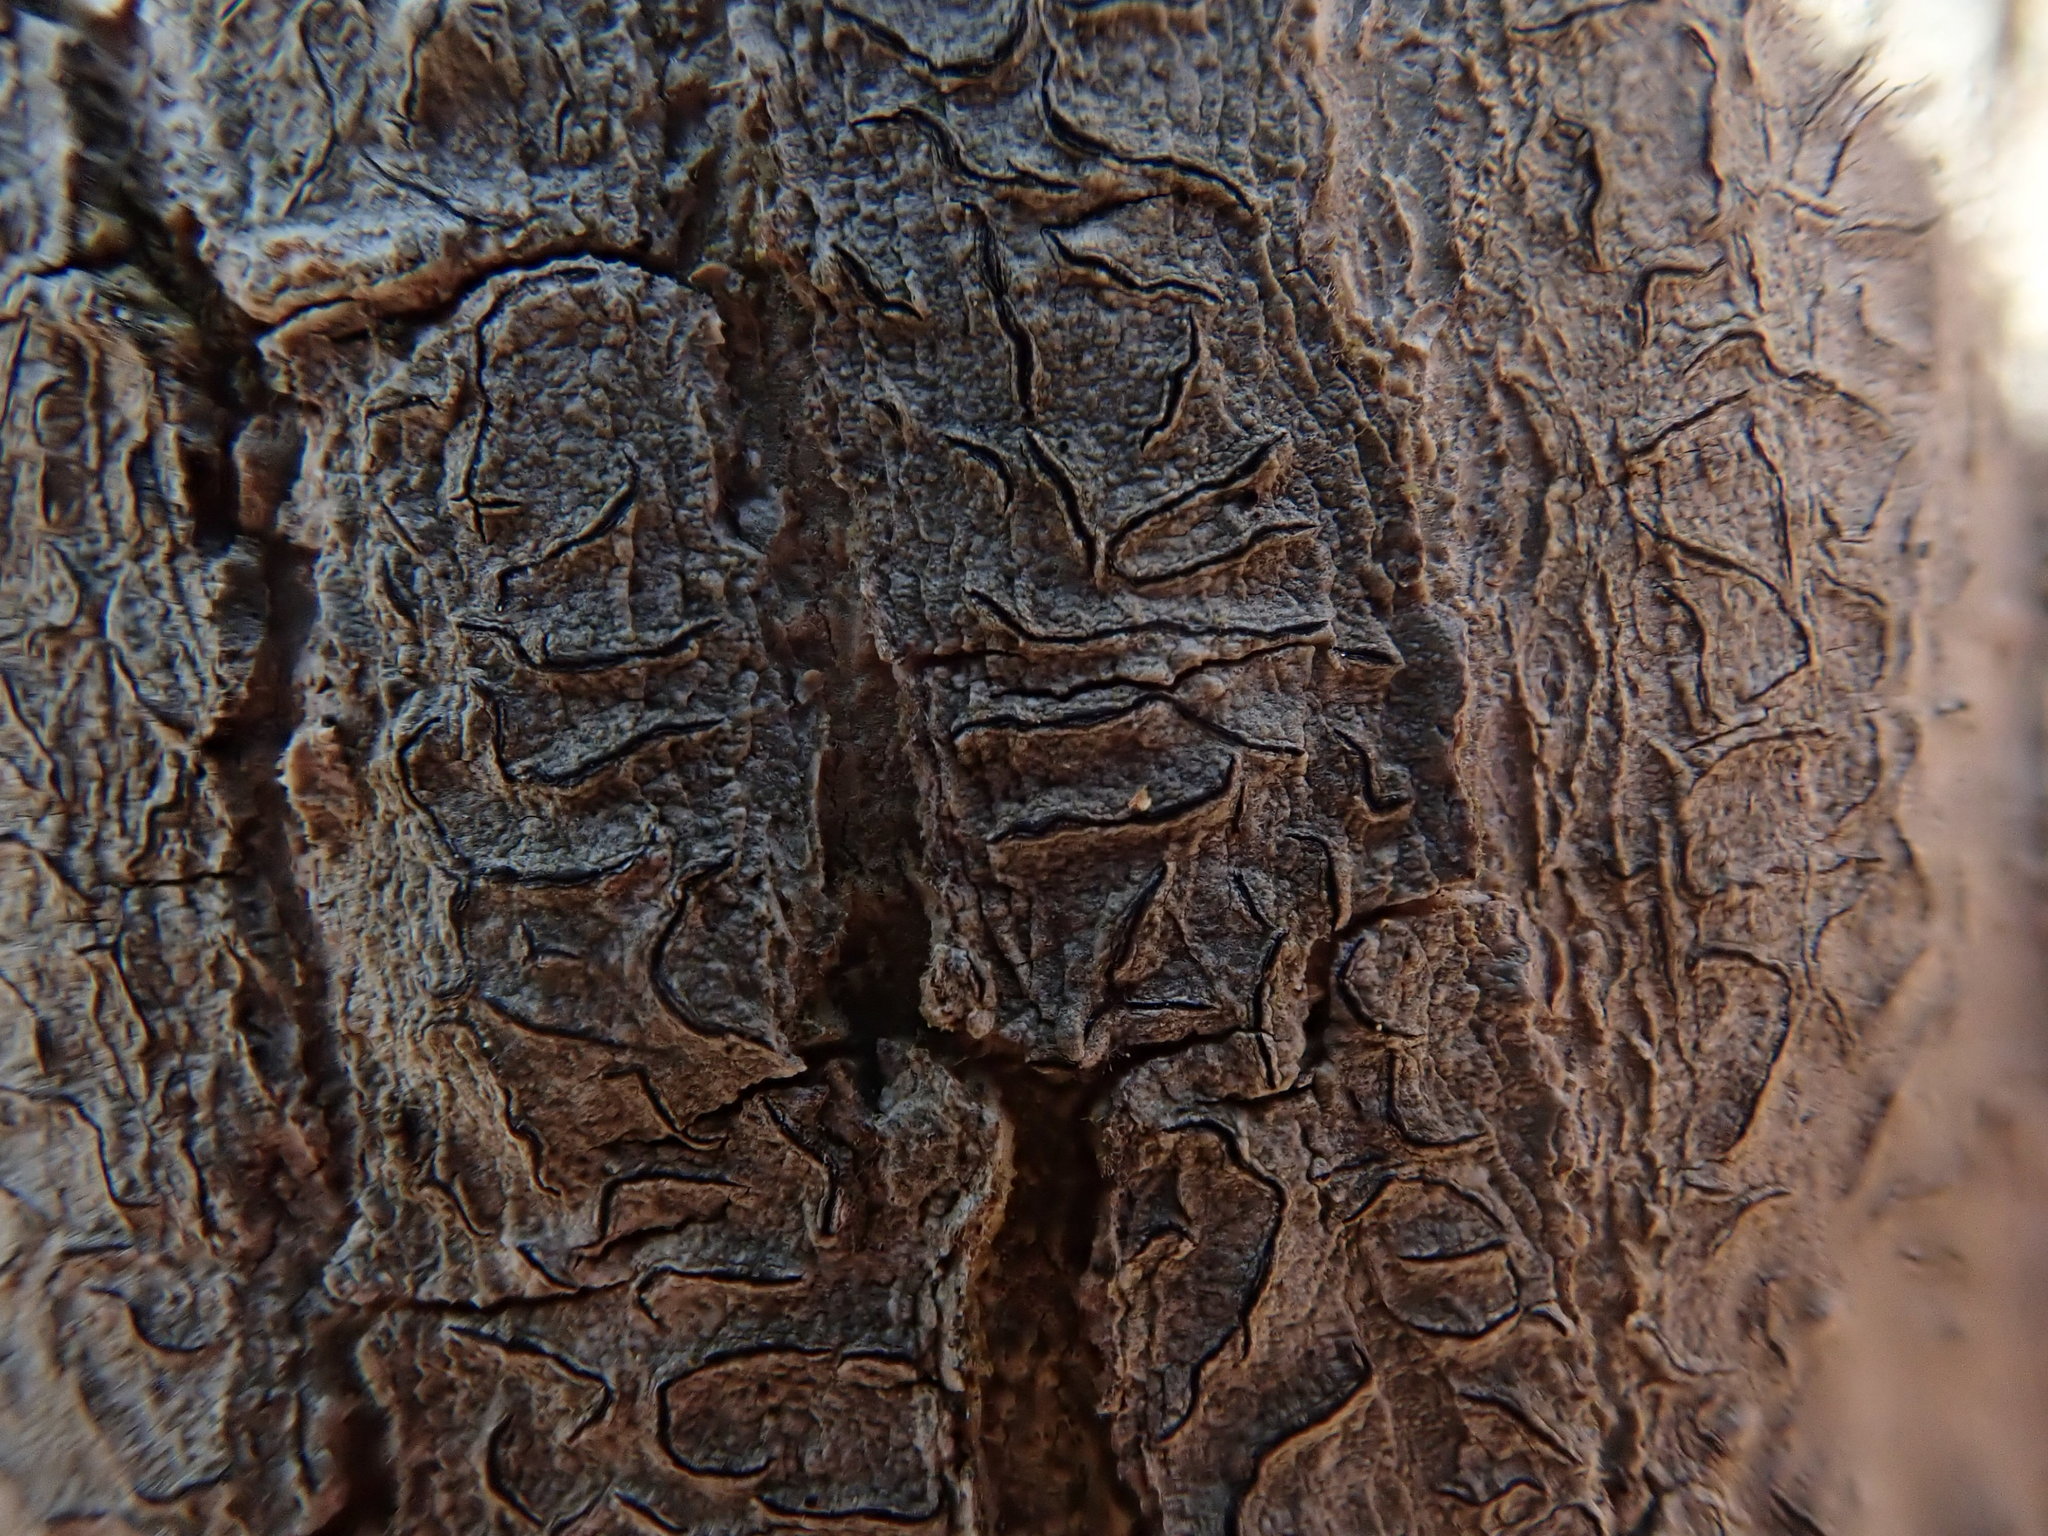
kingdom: Fungi
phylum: Ascomycota
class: Lecanoromycetes
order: Ostropales
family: Graphidaceae
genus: Graphis
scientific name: Graphis scripta
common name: Script lichen
